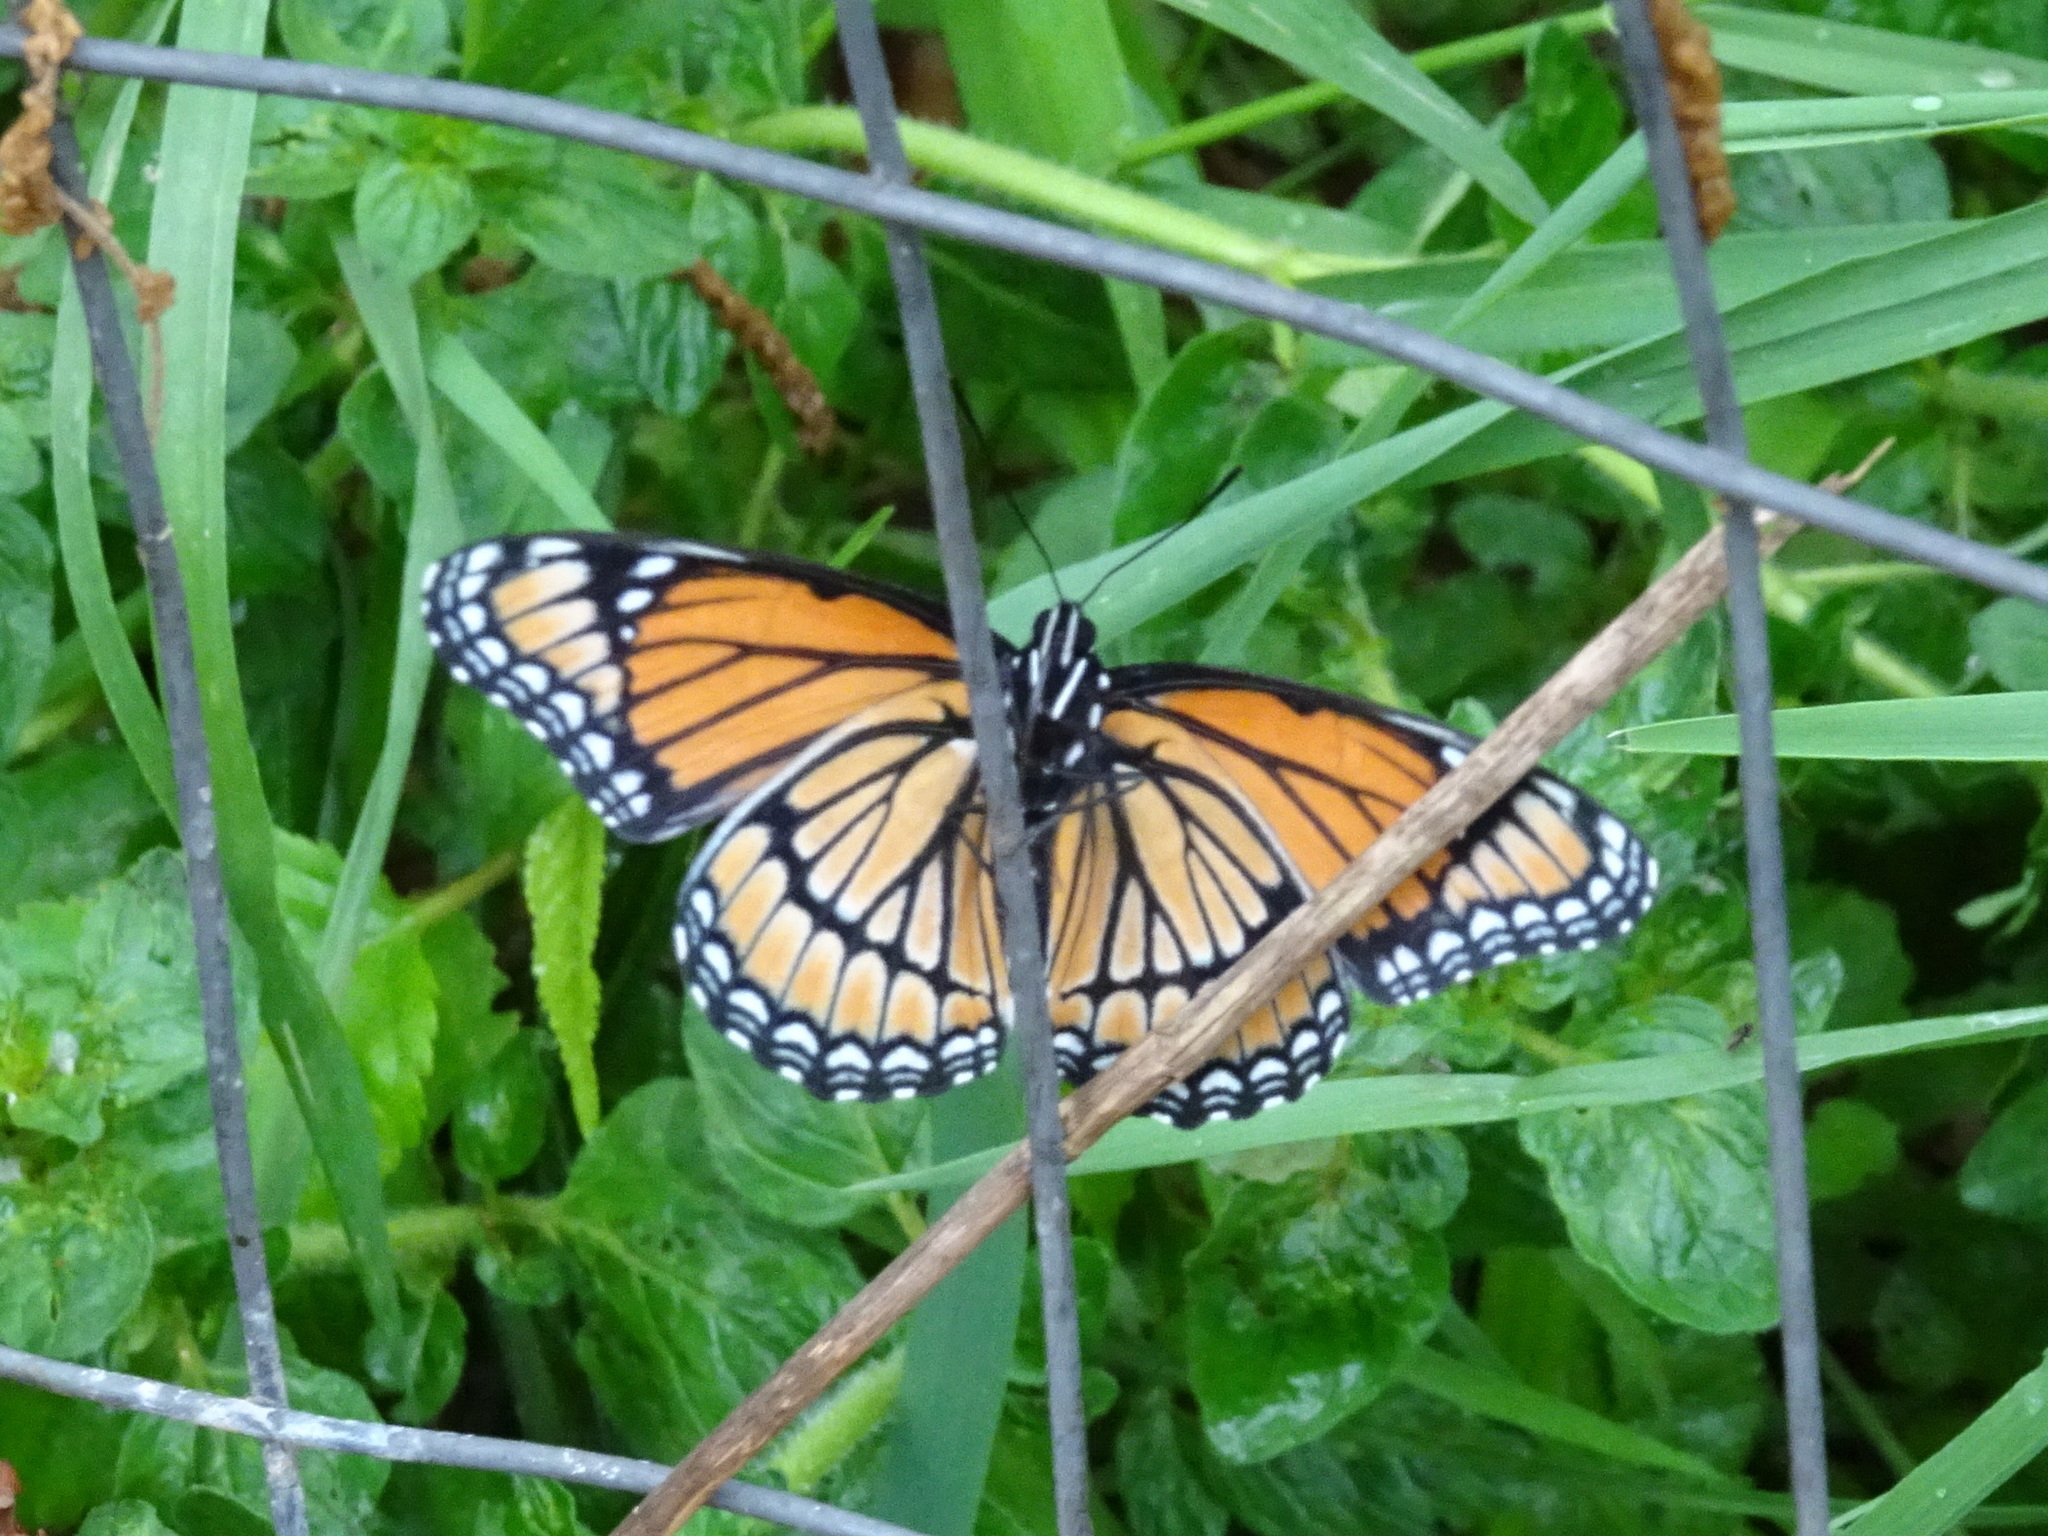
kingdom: Animalia
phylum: Arthropoda
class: Insecta
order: Lepidoptera
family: Nymphalidae
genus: Limenitis
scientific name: Limenitis archippus
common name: Viceroy
